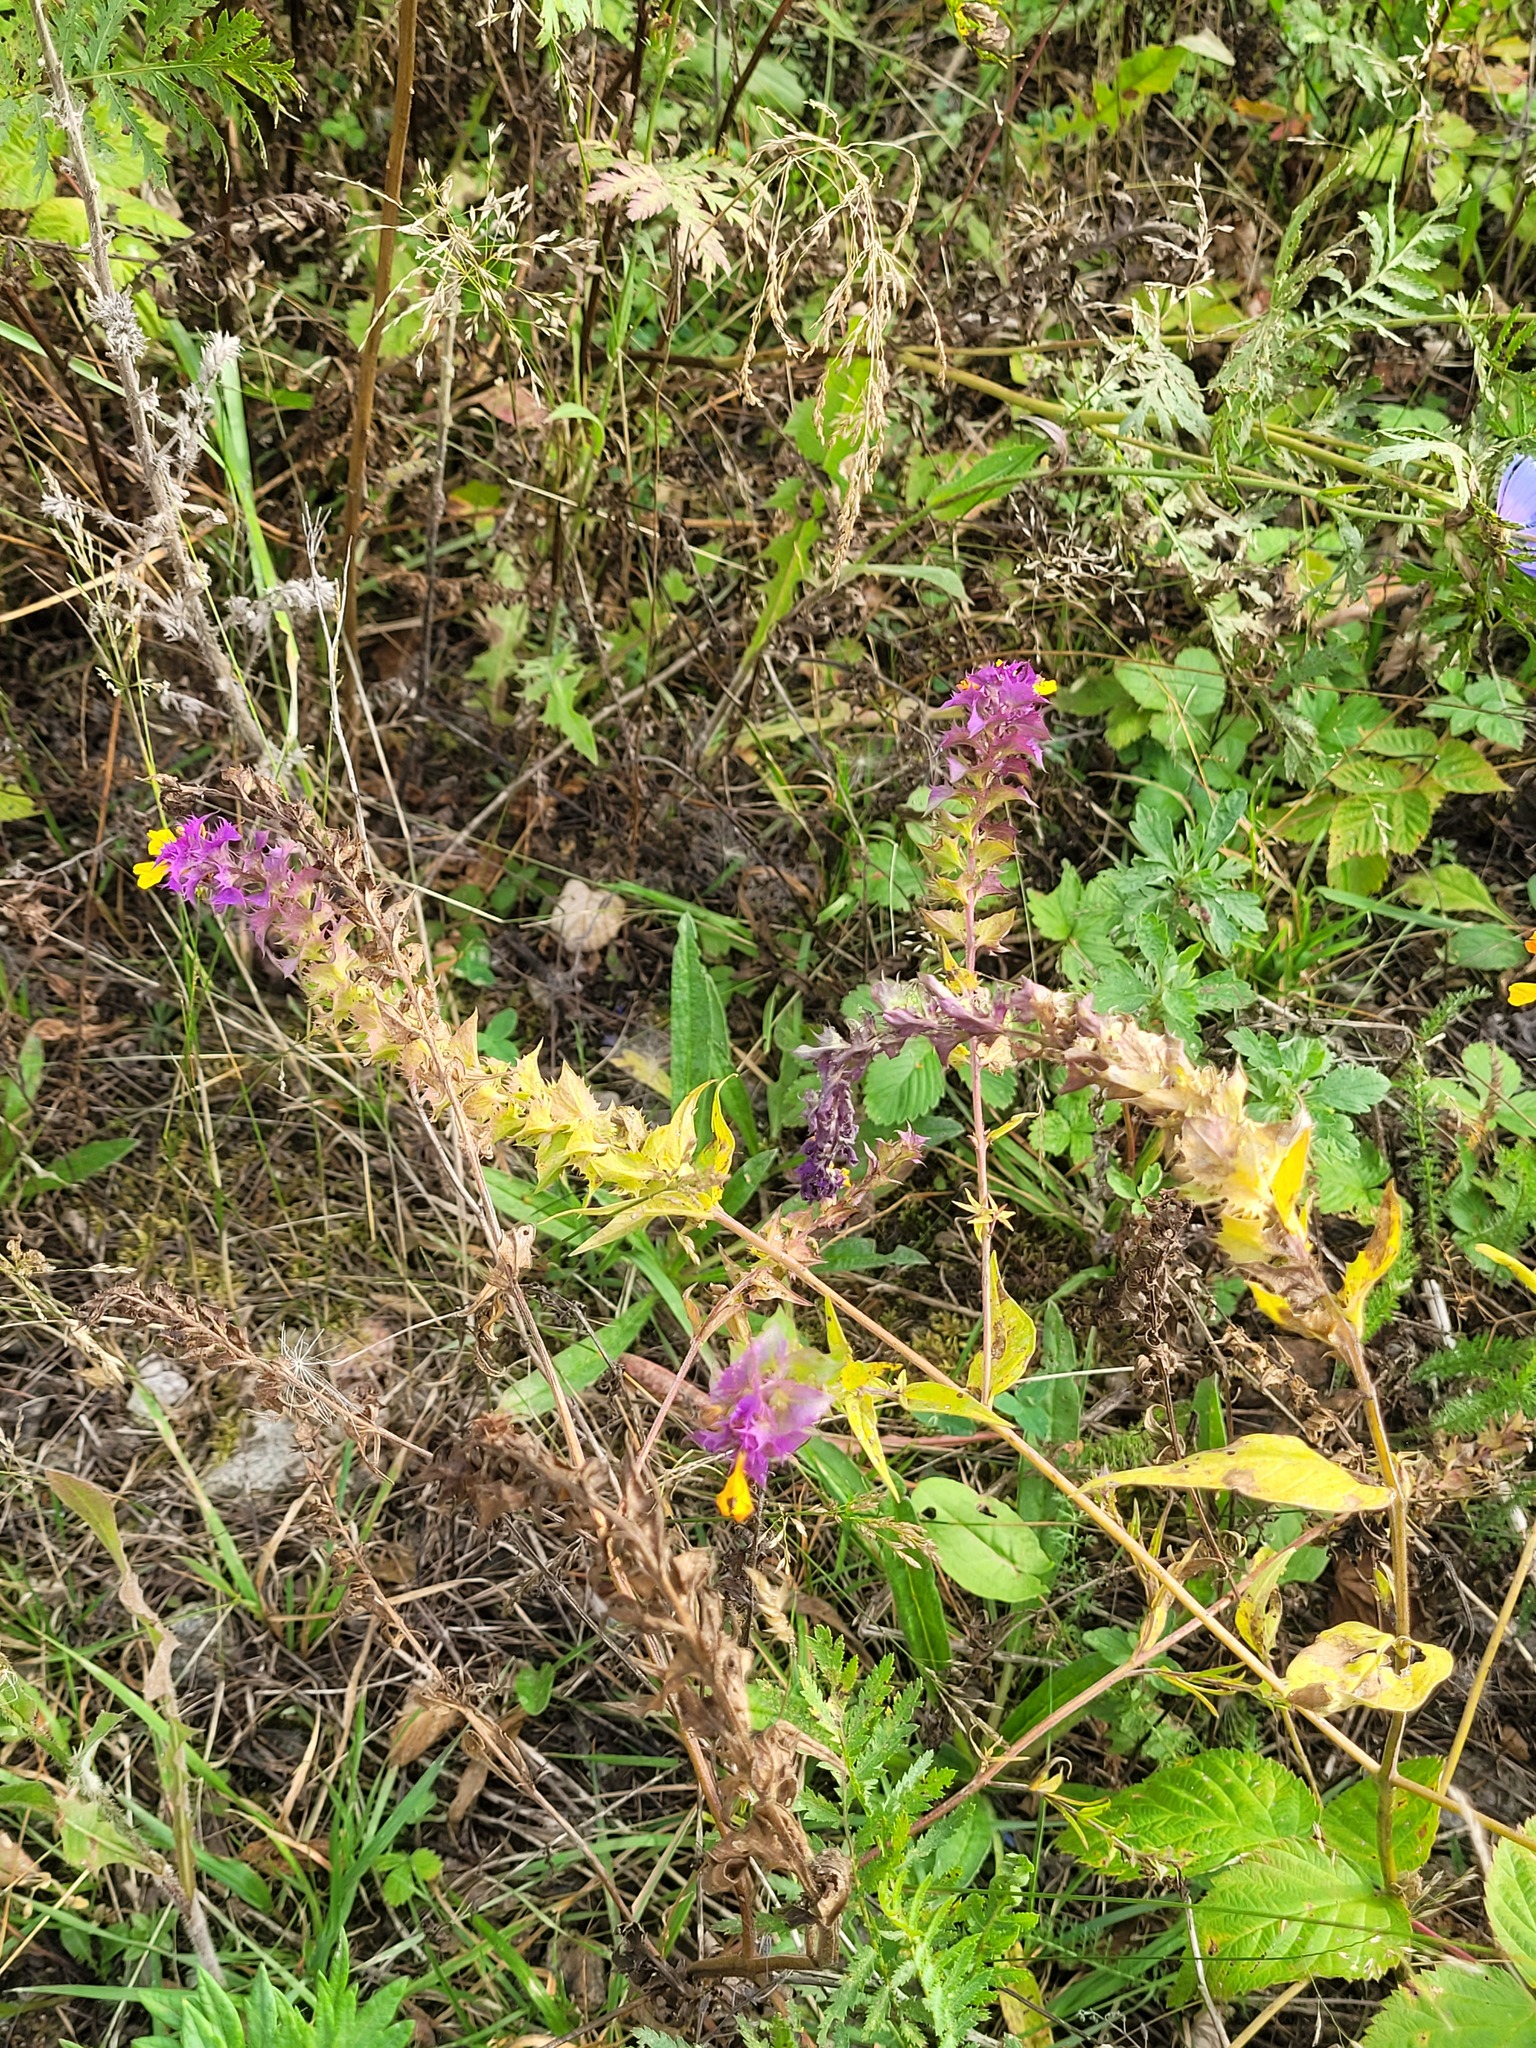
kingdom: Plantae
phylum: Tracheophyta
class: Magnoliopsida
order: Lamiales
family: Orobanchaceae
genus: Melampyrum
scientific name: Melampyrum nemorosum
